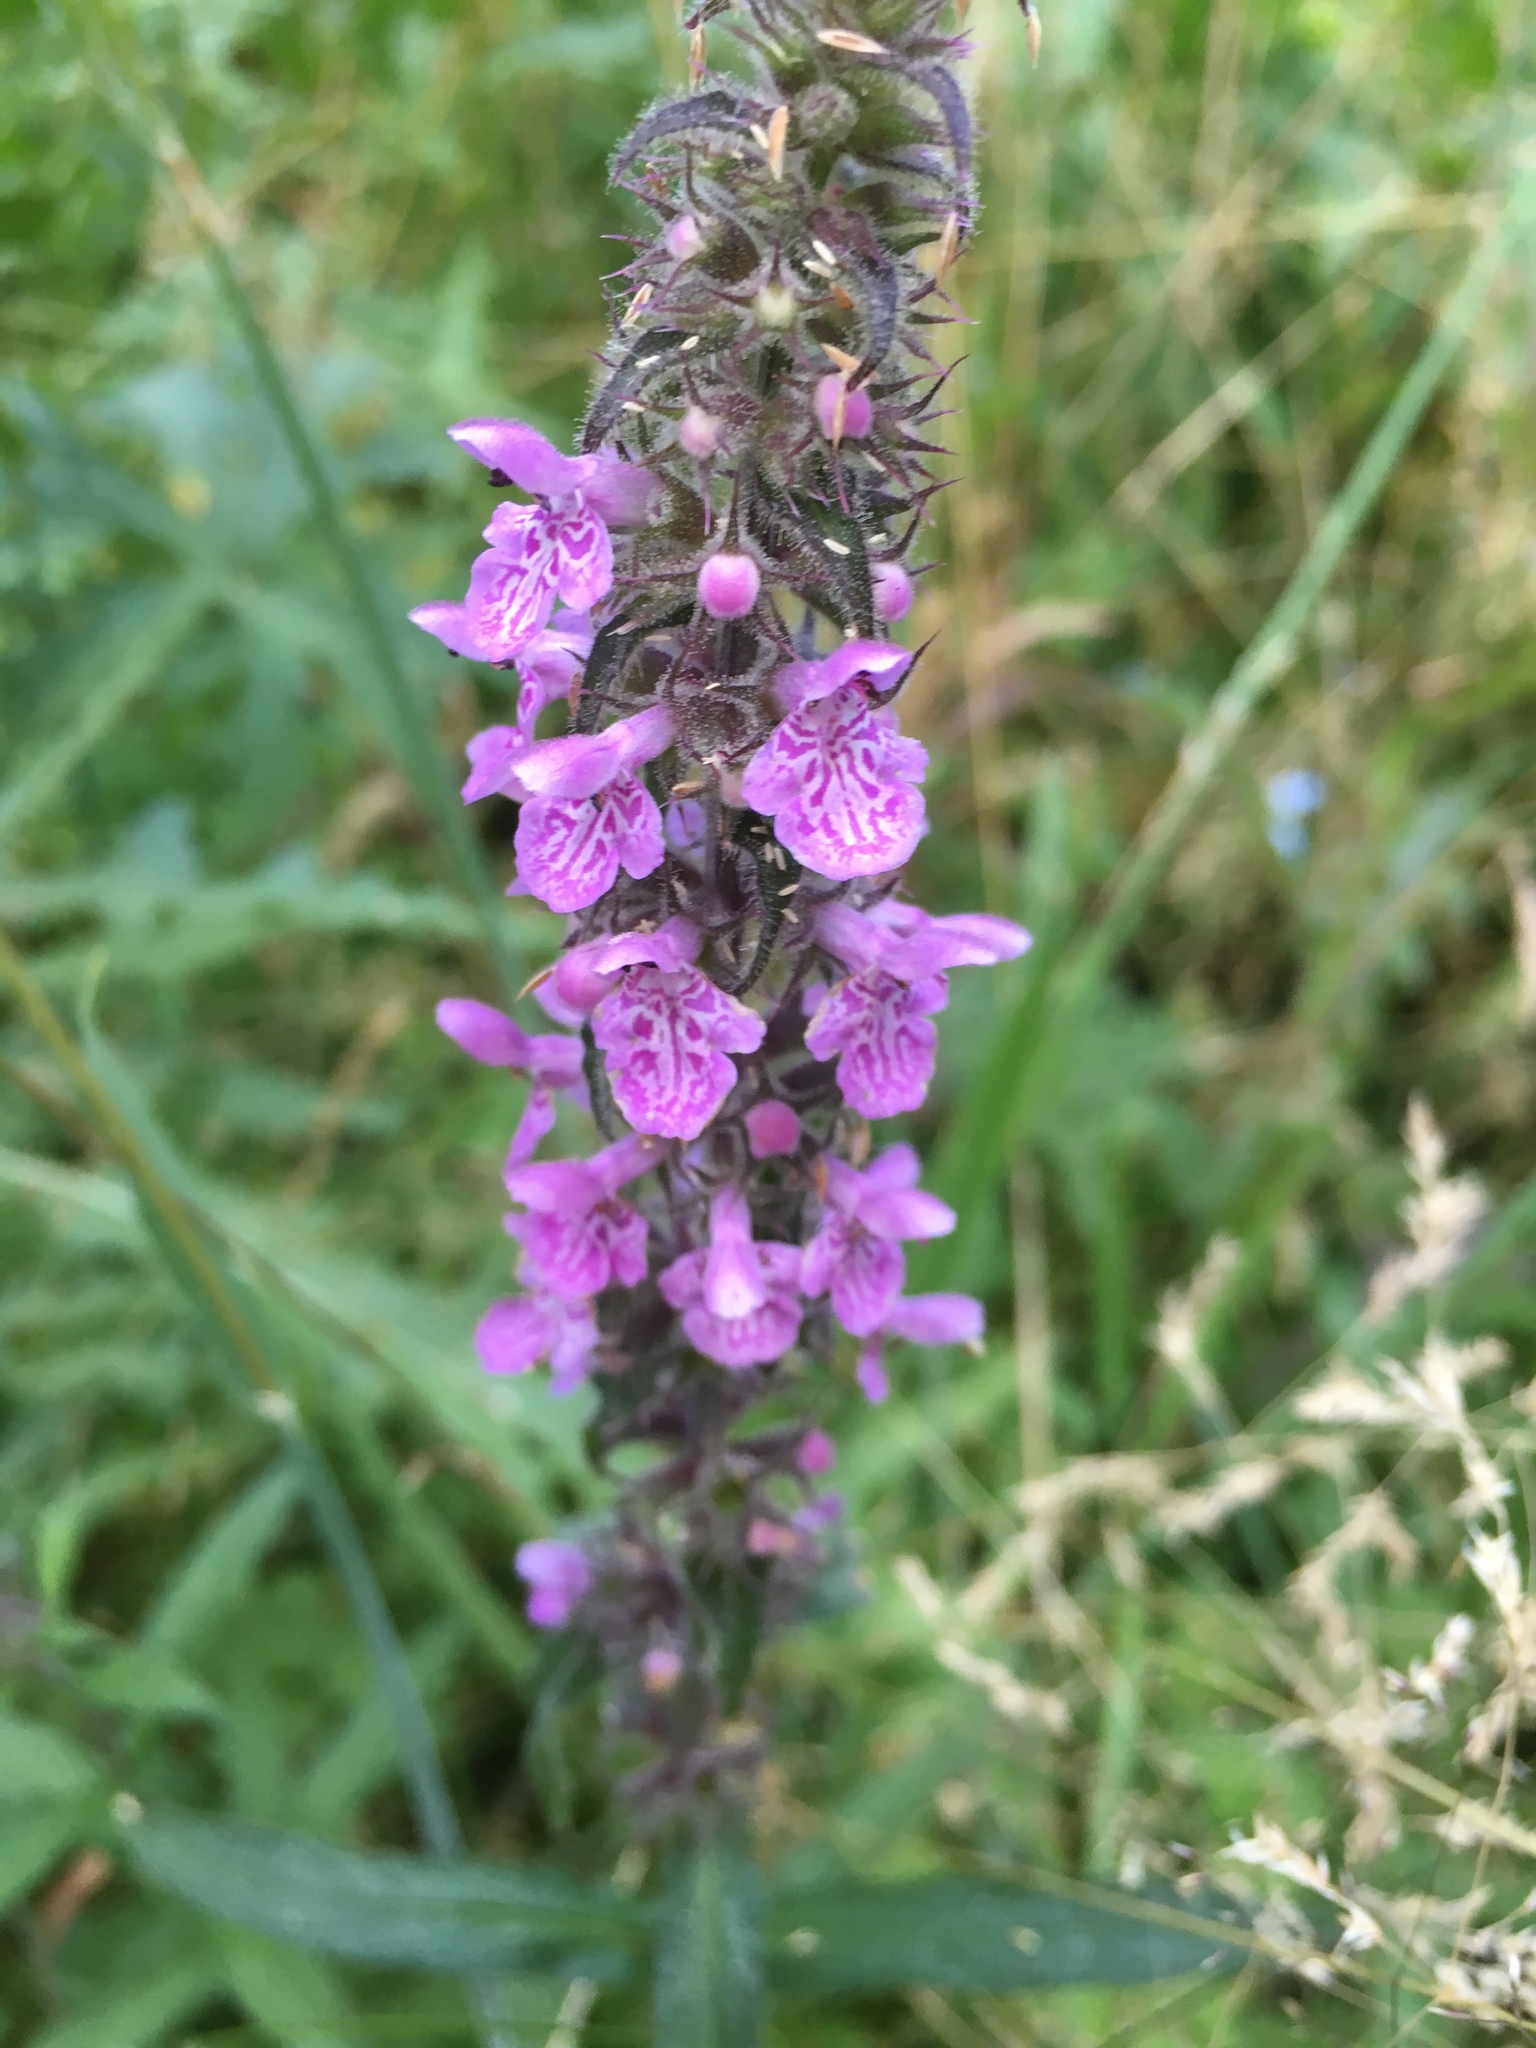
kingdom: Plantae
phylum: Tracheophyta
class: Magnoliopsida
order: Lamiales
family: Lamiaceae
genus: Stachys
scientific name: Stachys palustris
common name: Marsh woundwort
